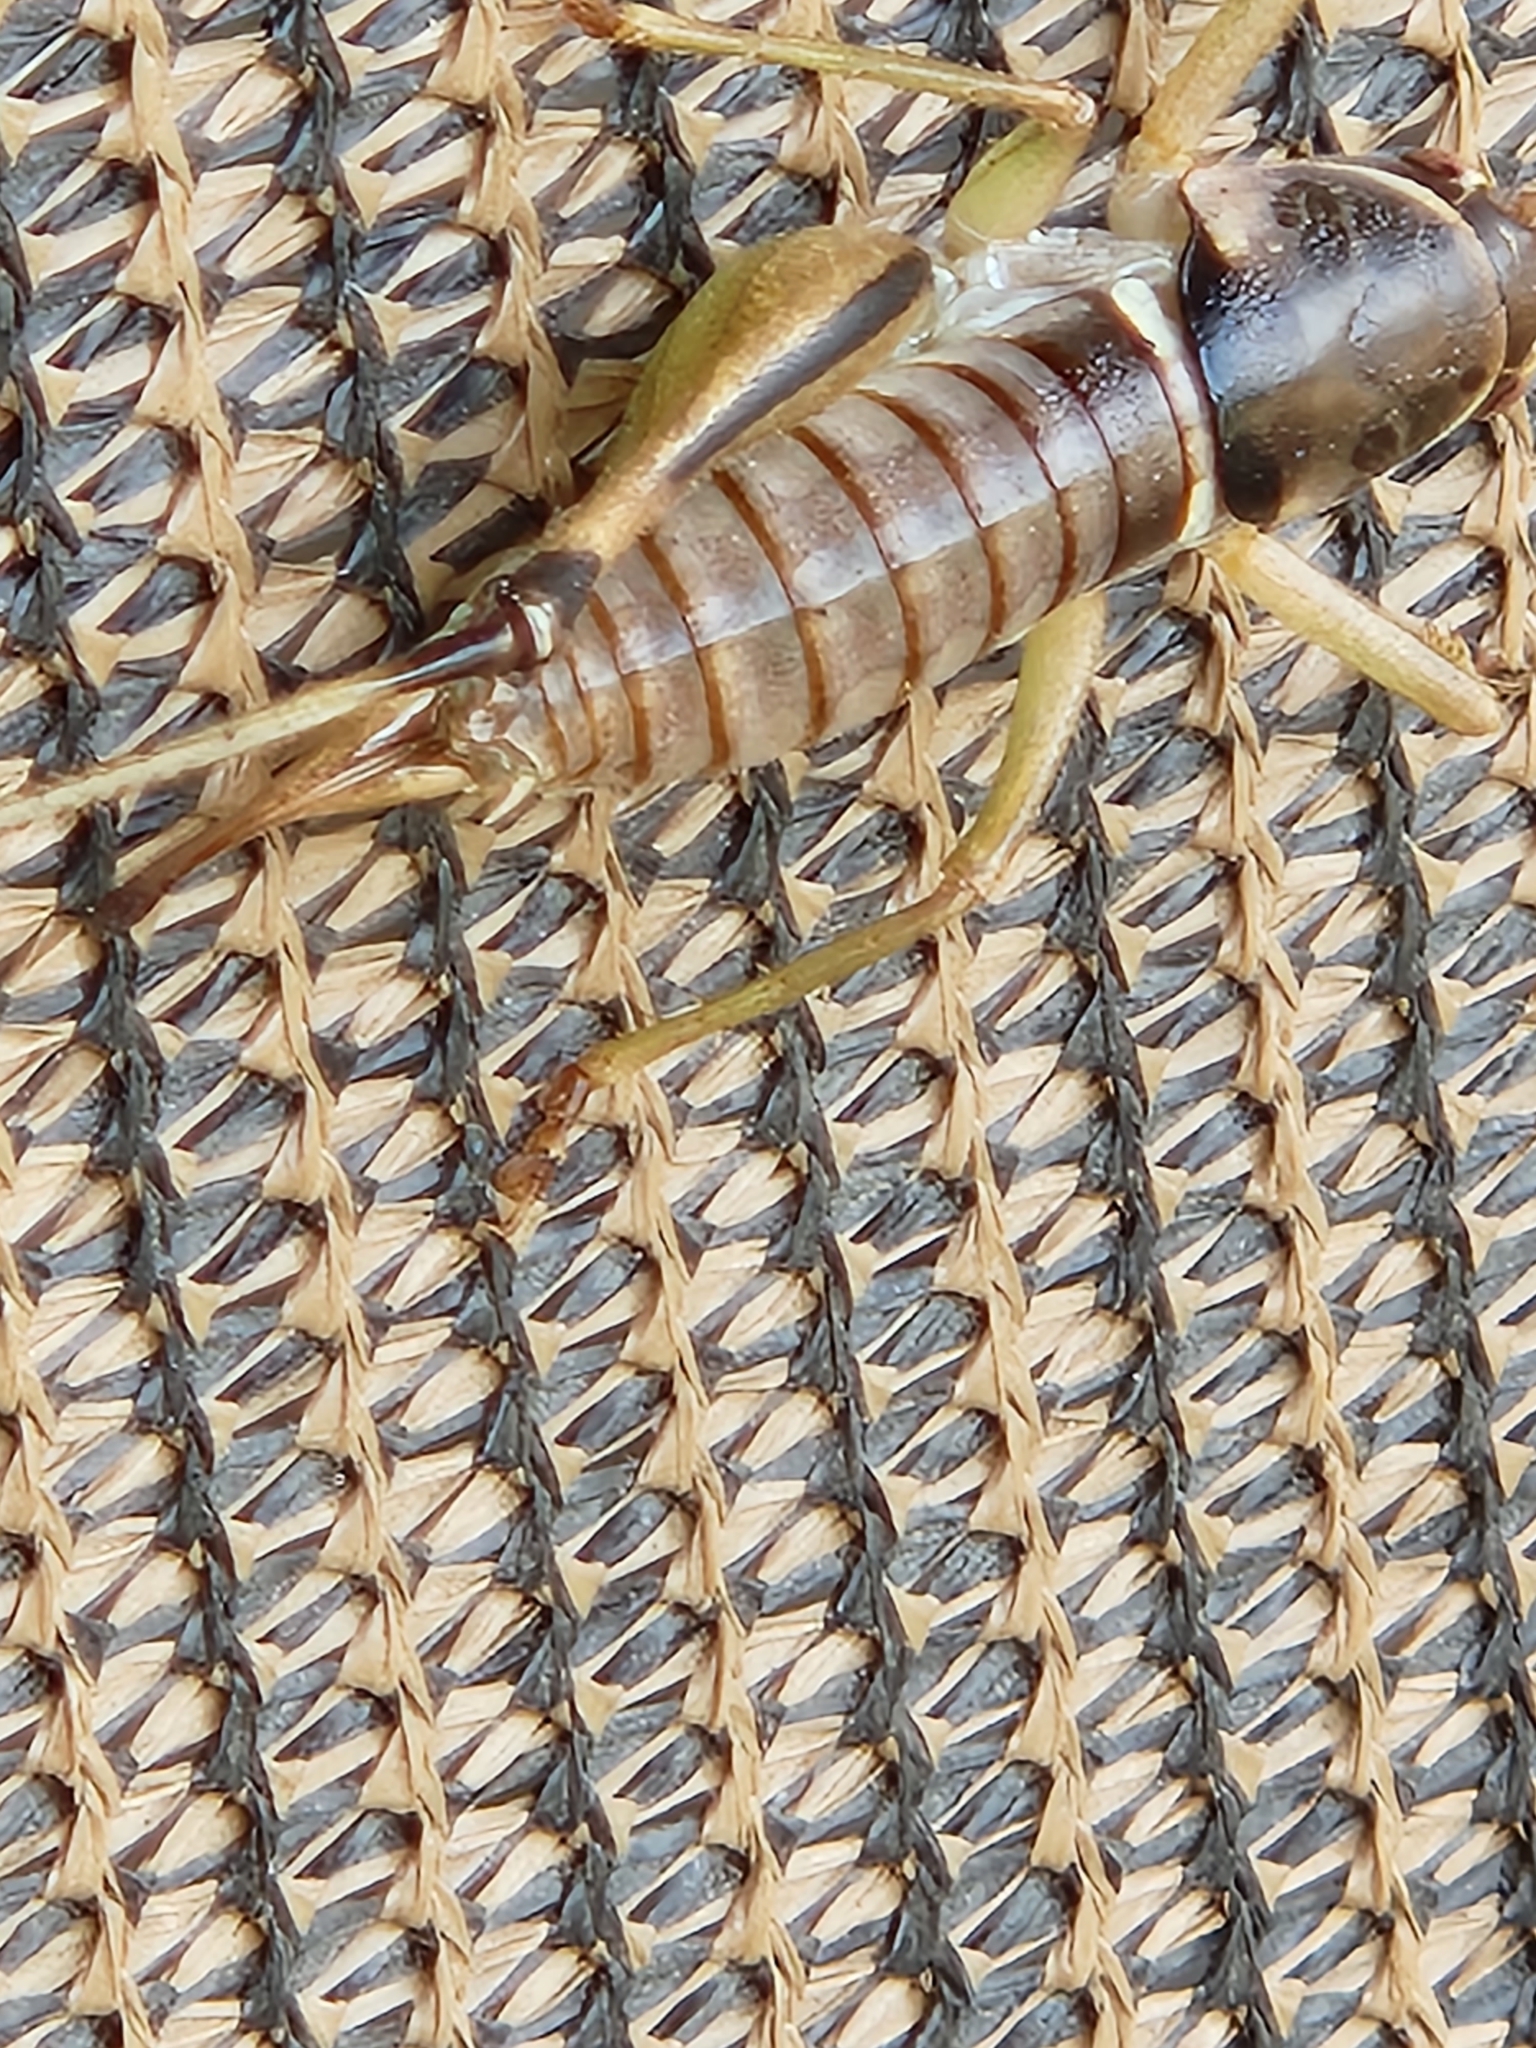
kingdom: Animalia
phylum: Arthropoda
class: Insecta
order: Orthoptera
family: Tettigoniidae
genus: Pediodectes
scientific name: Pediodectes bruneri
